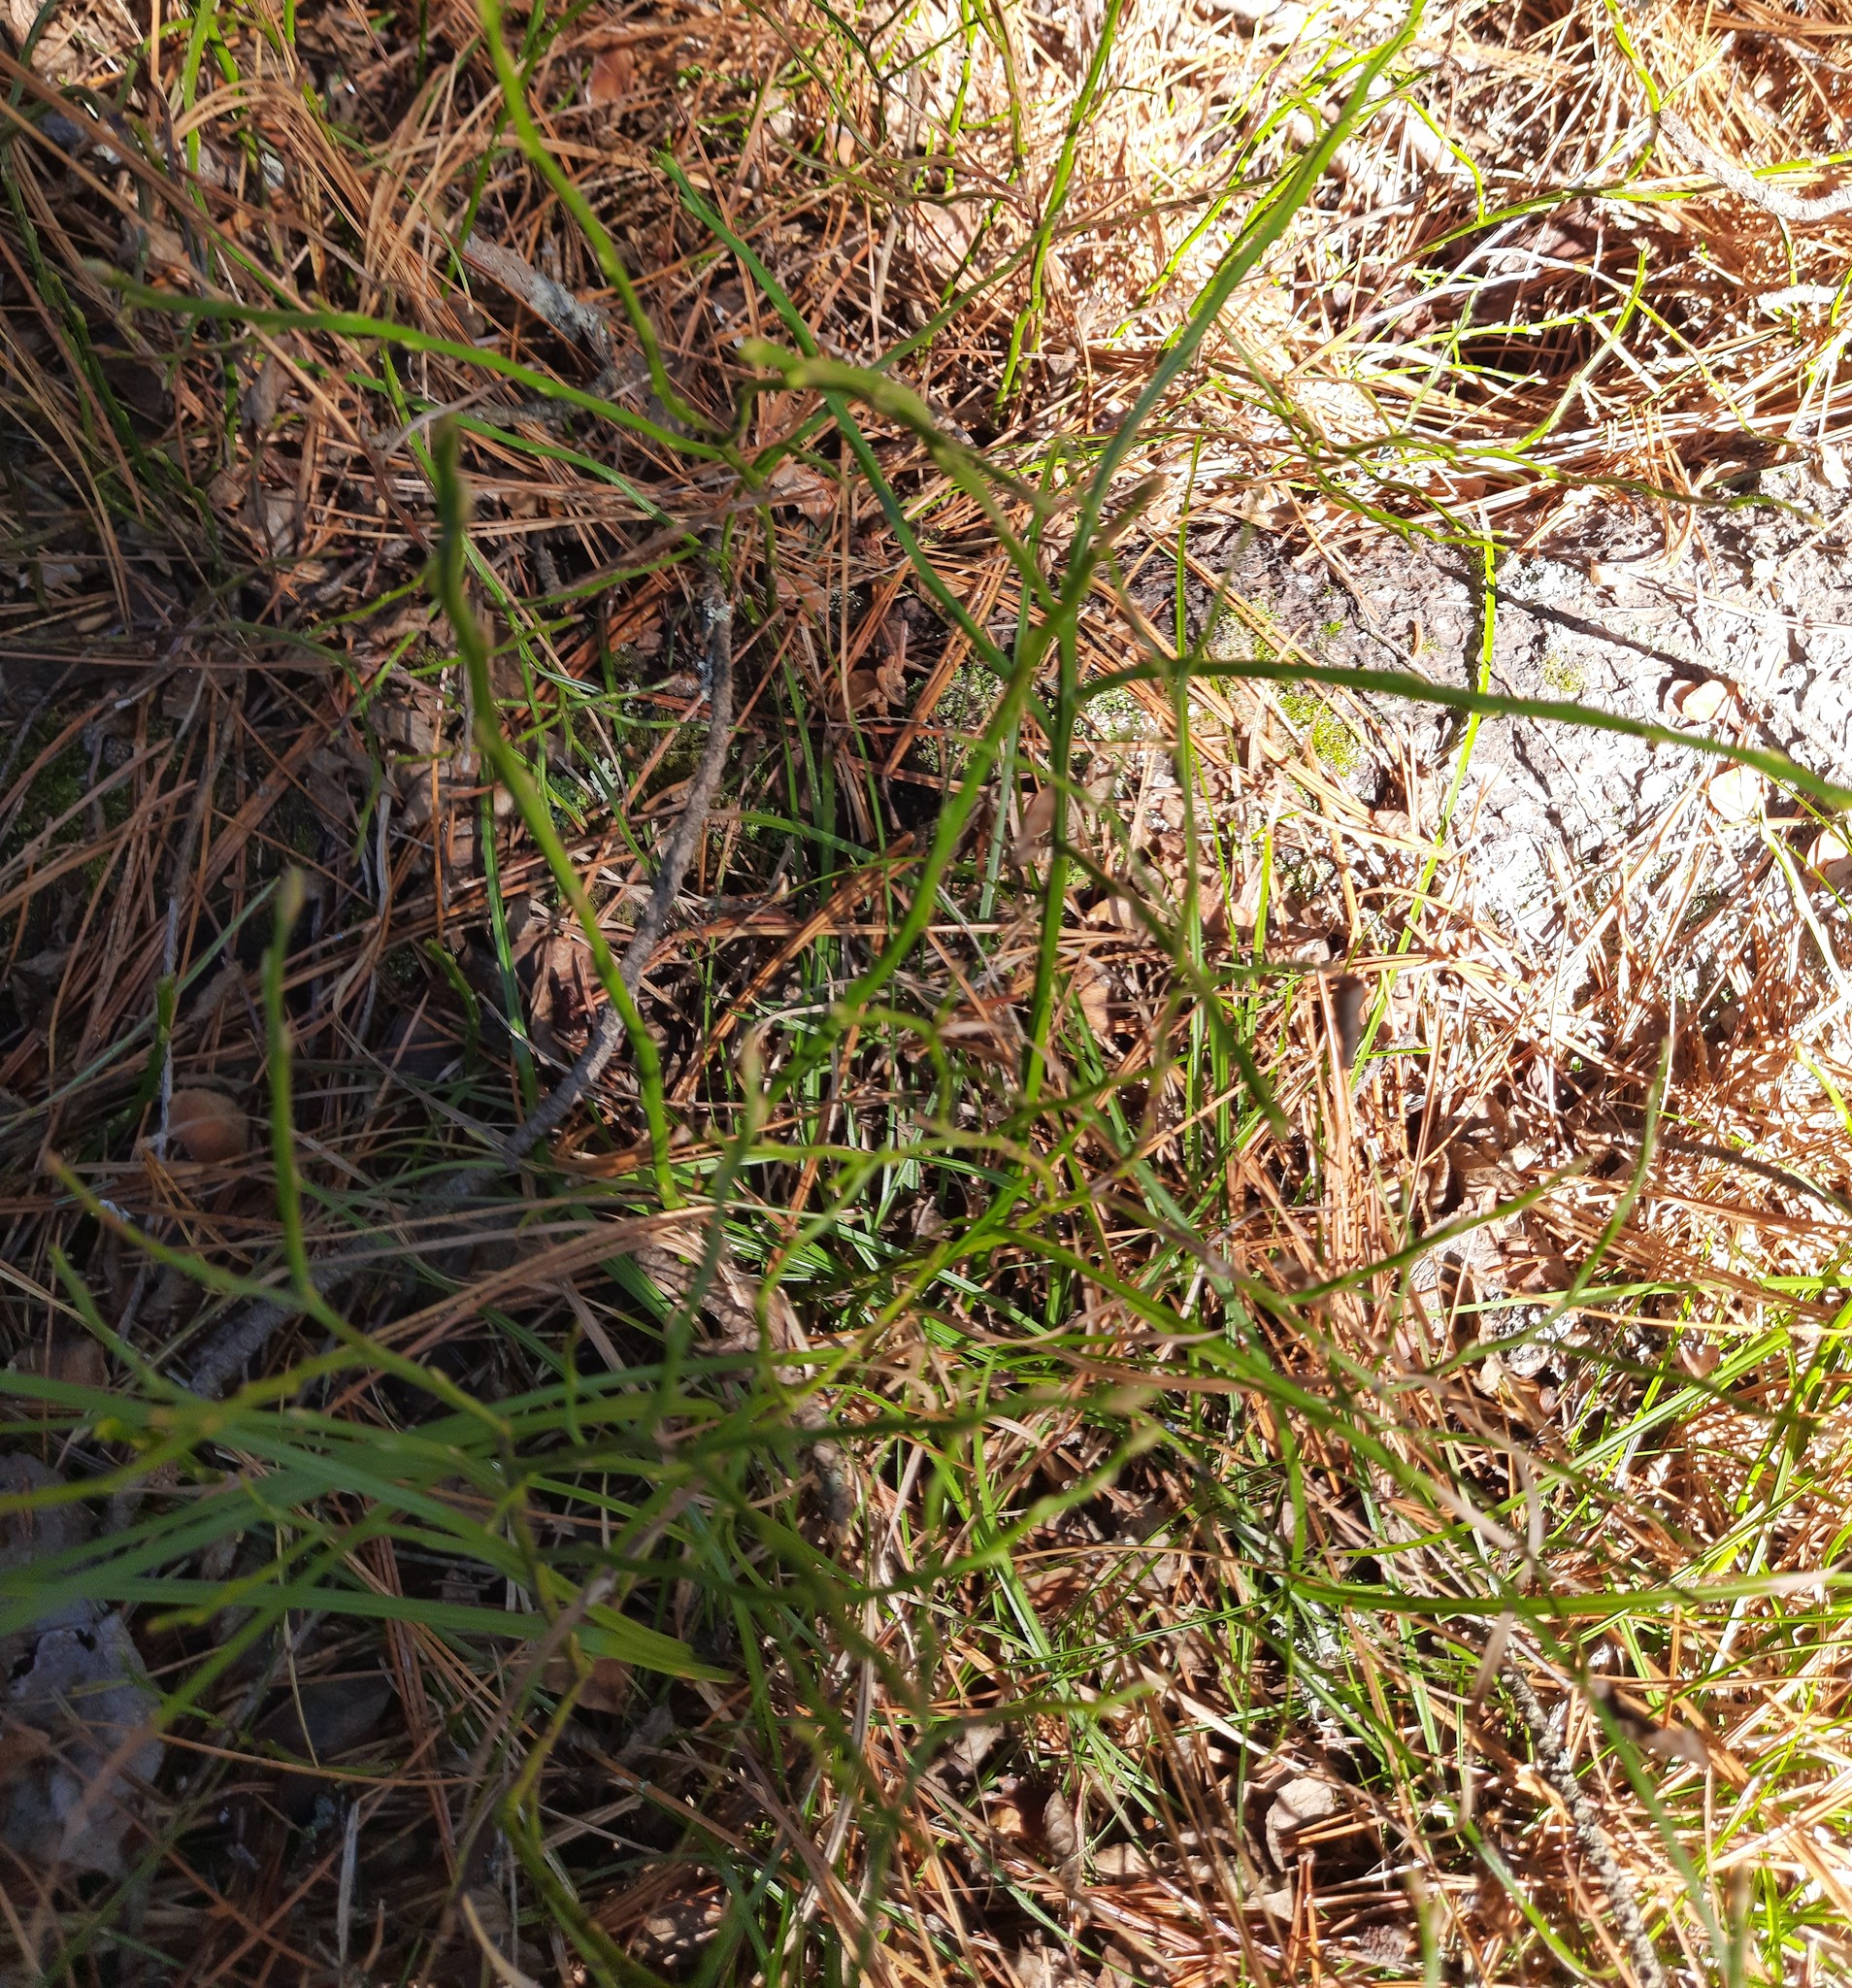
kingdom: Plantae
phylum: Tracheophyta
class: Magnoliopsida
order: Ericales
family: Ericaceae
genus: Vaccinium
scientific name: Vaccinium myrtillus
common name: Bilberry
